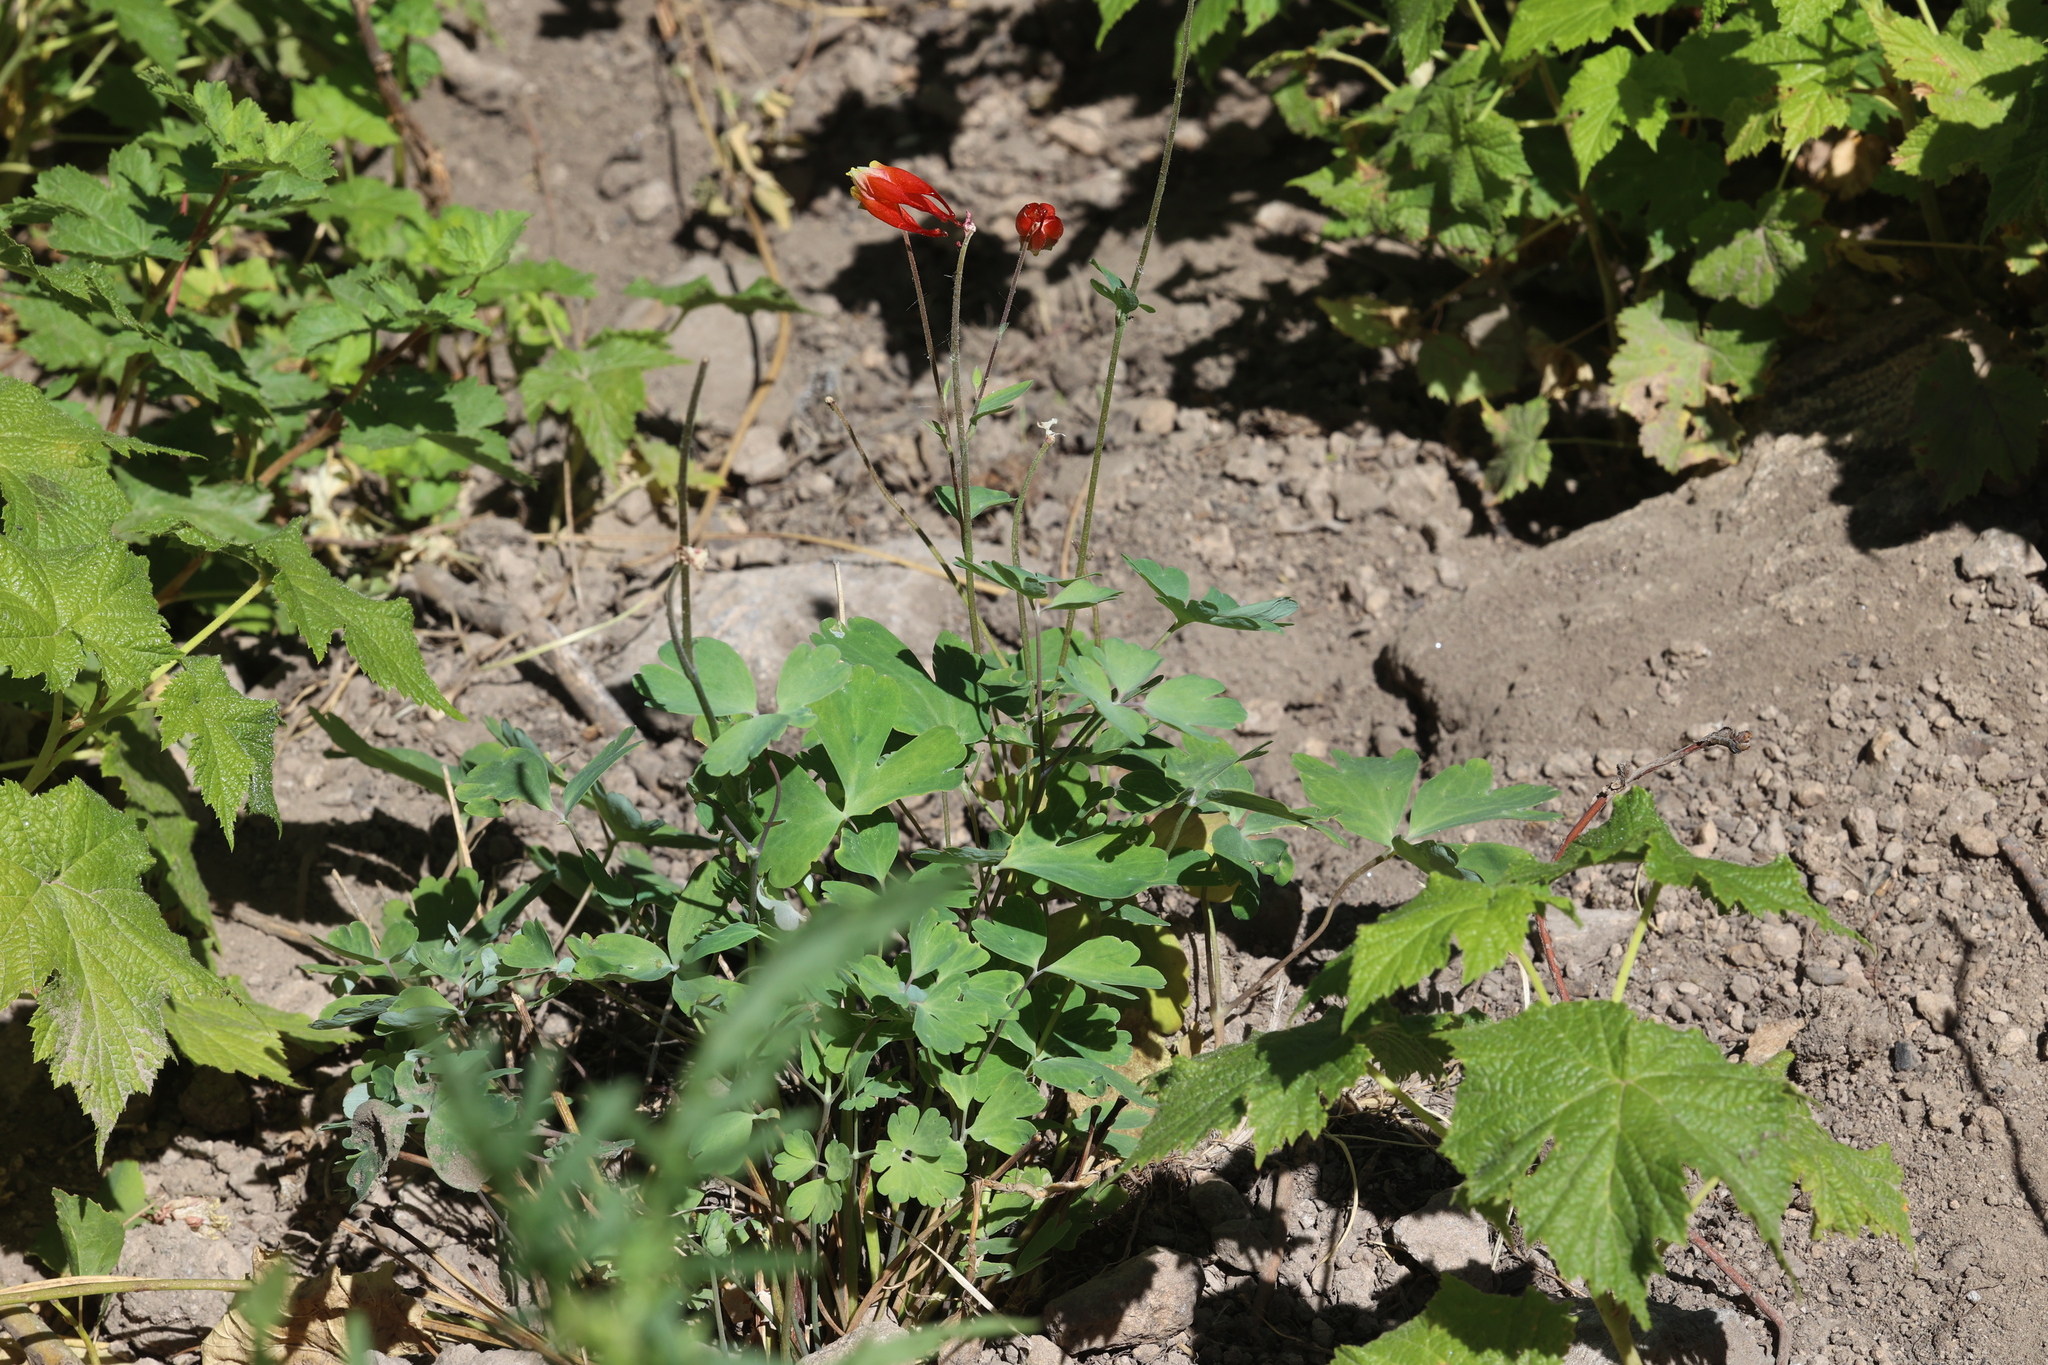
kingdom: Plantae
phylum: Tracheophyta
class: Magnoliopsida
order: Ranunculales
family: Ranunculaceae
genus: Aquilegia
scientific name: Aquilegia elegantula
